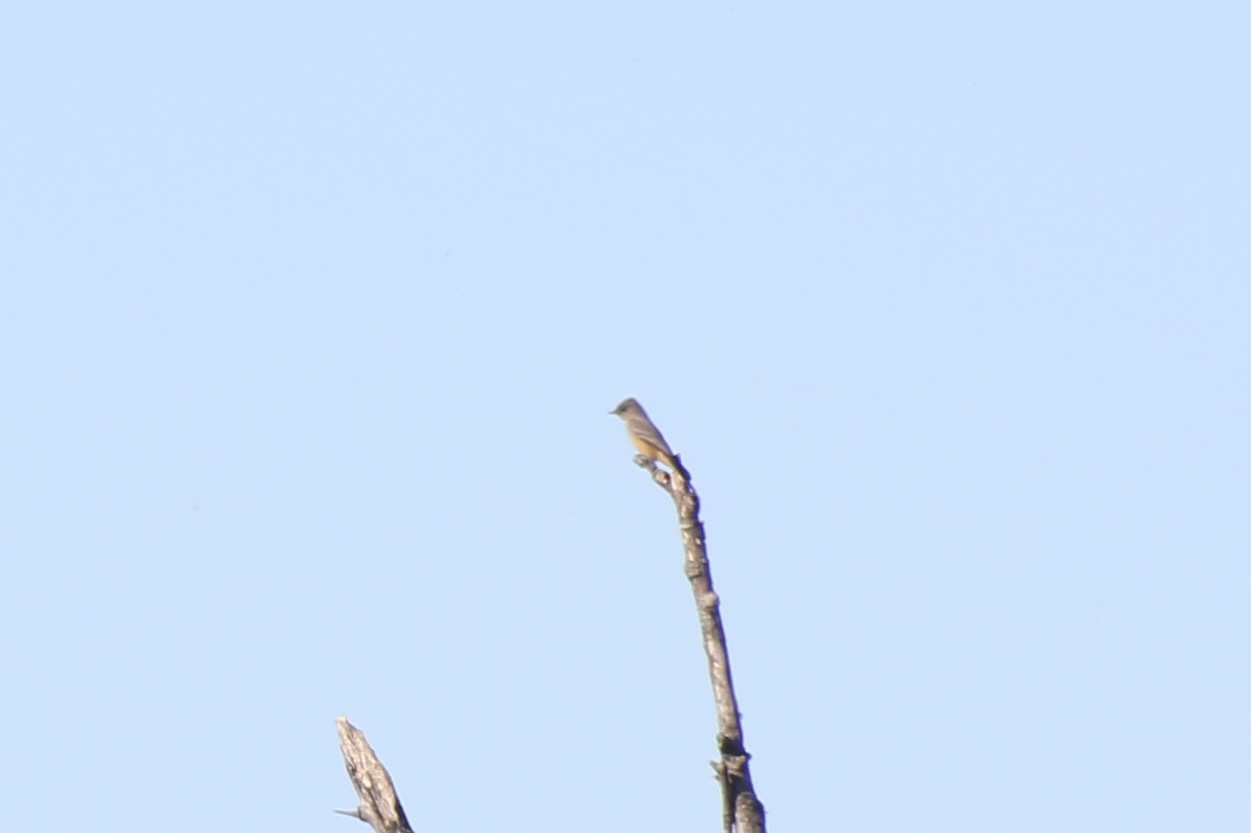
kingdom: Animalia
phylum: Chordata
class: Aves
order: Passeriformes
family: Tyrannidae
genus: Sayornis
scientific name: Sayornis saya
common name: Say's phoebe
